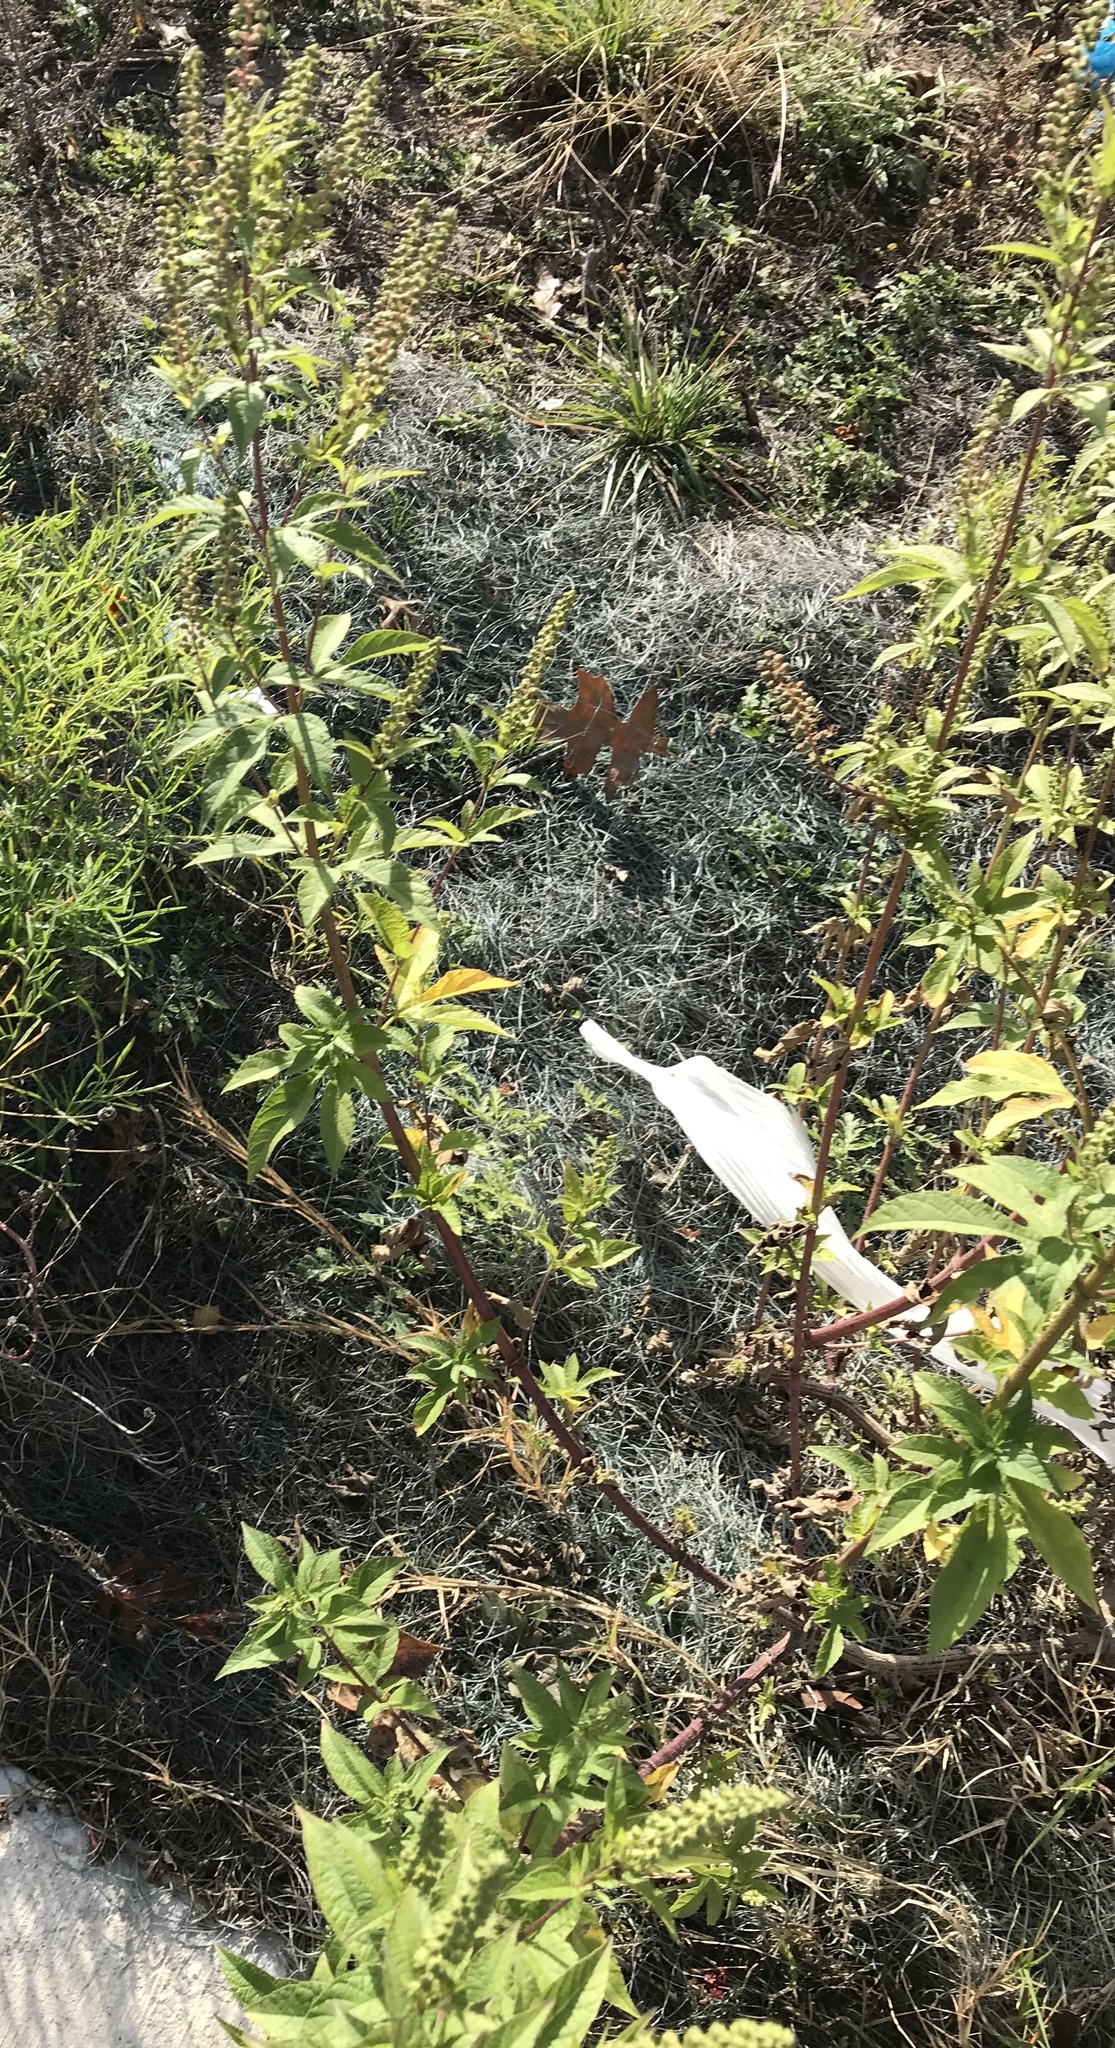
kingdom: Plantae
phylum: Tracheophyta
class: Magnoliopsida
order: Asterales
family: Asteraceae
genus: Ambrosia
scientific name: Ambrosia trifida
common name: Giant ragweed
